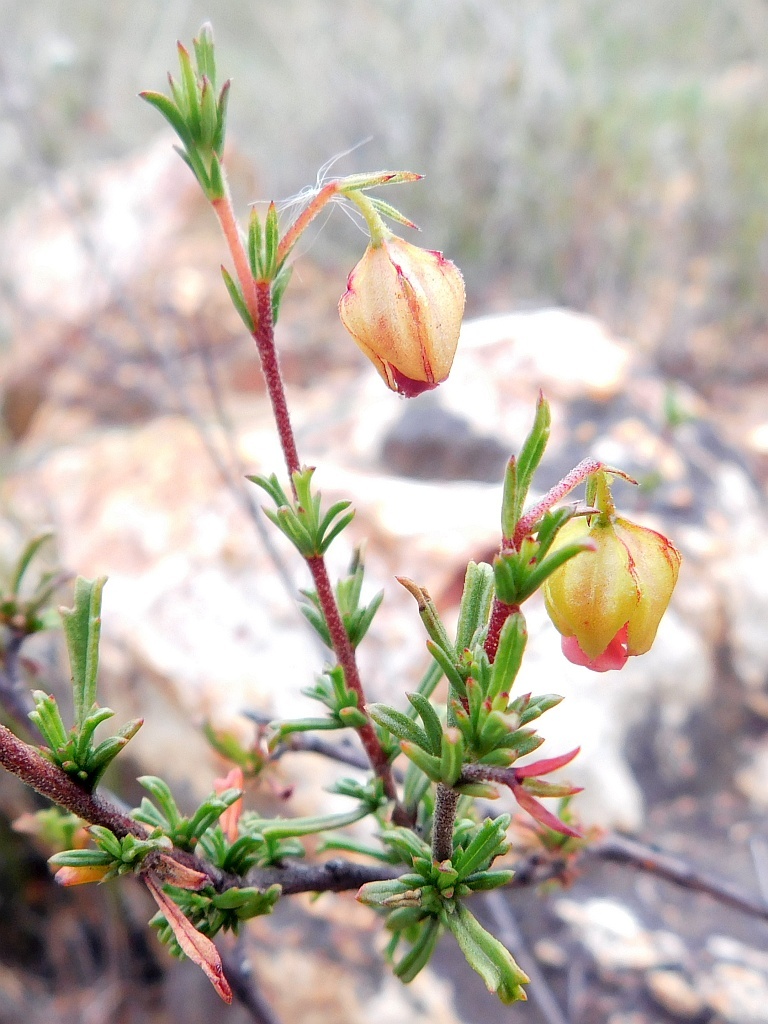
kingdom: Plantae
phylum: Tracheophyta
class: Magnoliopsida
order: Malvales
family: Malvaceae
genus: Hermannia
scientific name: Hermannia angularis
